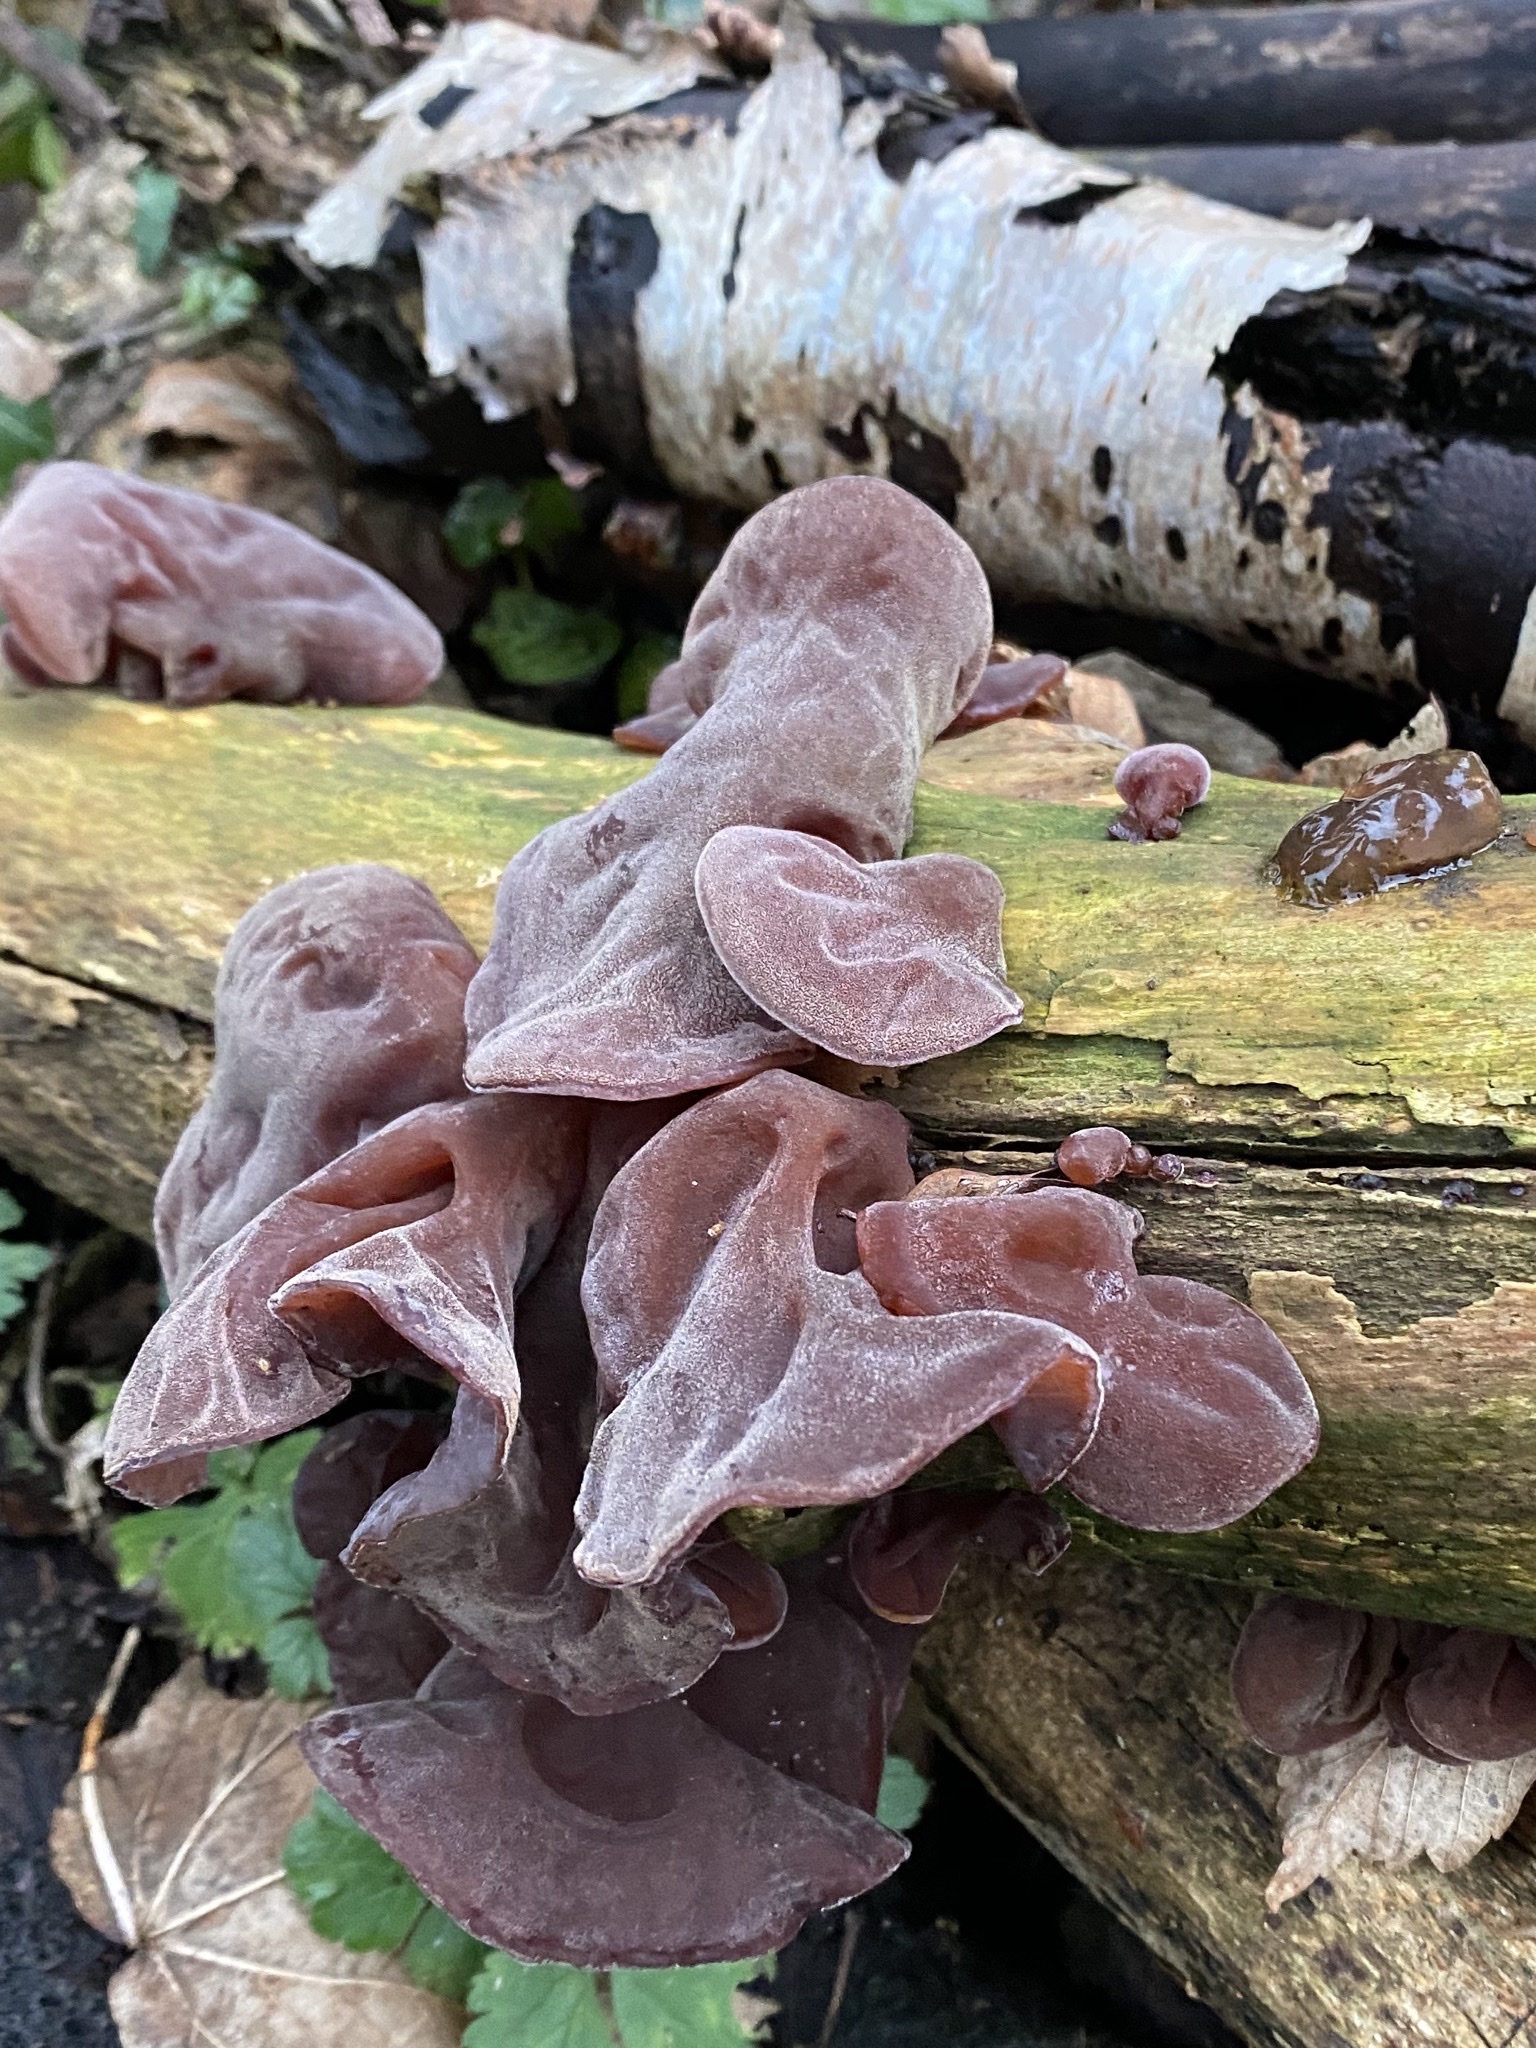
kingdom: Fungi
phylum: Basidiomycota
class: Agaricomycetes
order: Auriculariales
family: Auriculariaceae
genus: Auricularia
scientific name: Auricularia auricula-judae
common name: Jelly ear
